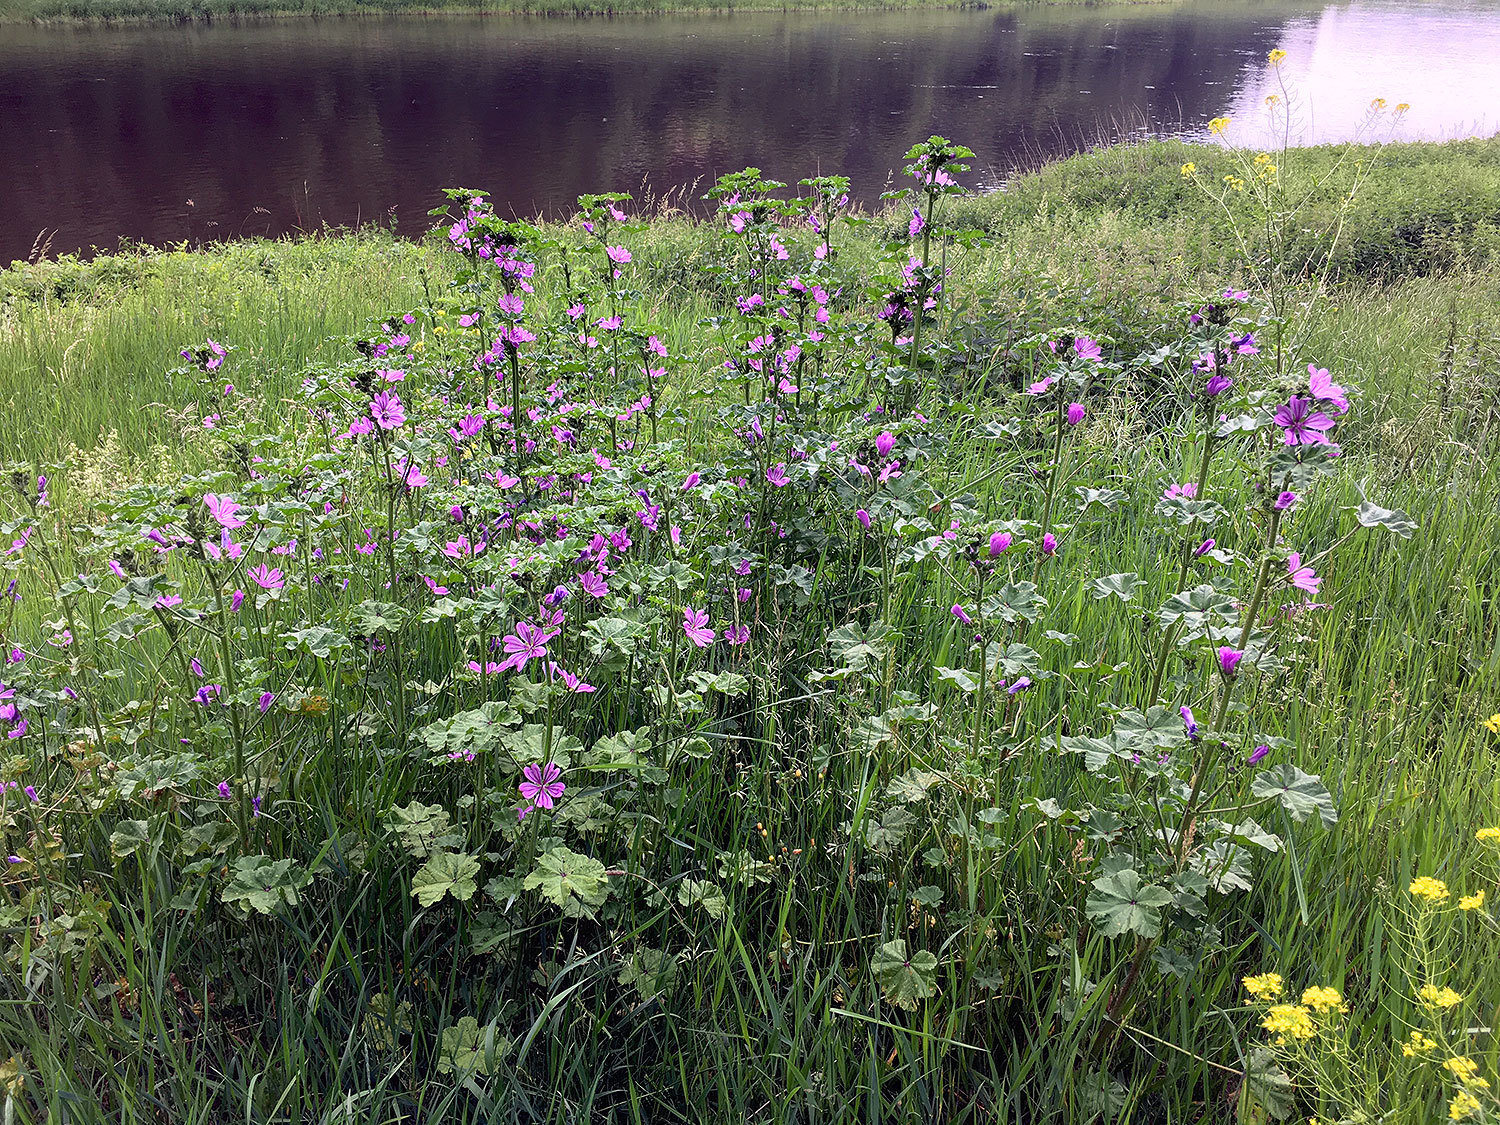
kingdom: Plantae
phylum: Tracheophyta
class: Magnoliopsida
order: Malvales
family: Malvaceae
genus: Malva
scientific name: Malva sylvestris
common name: Common mallow
